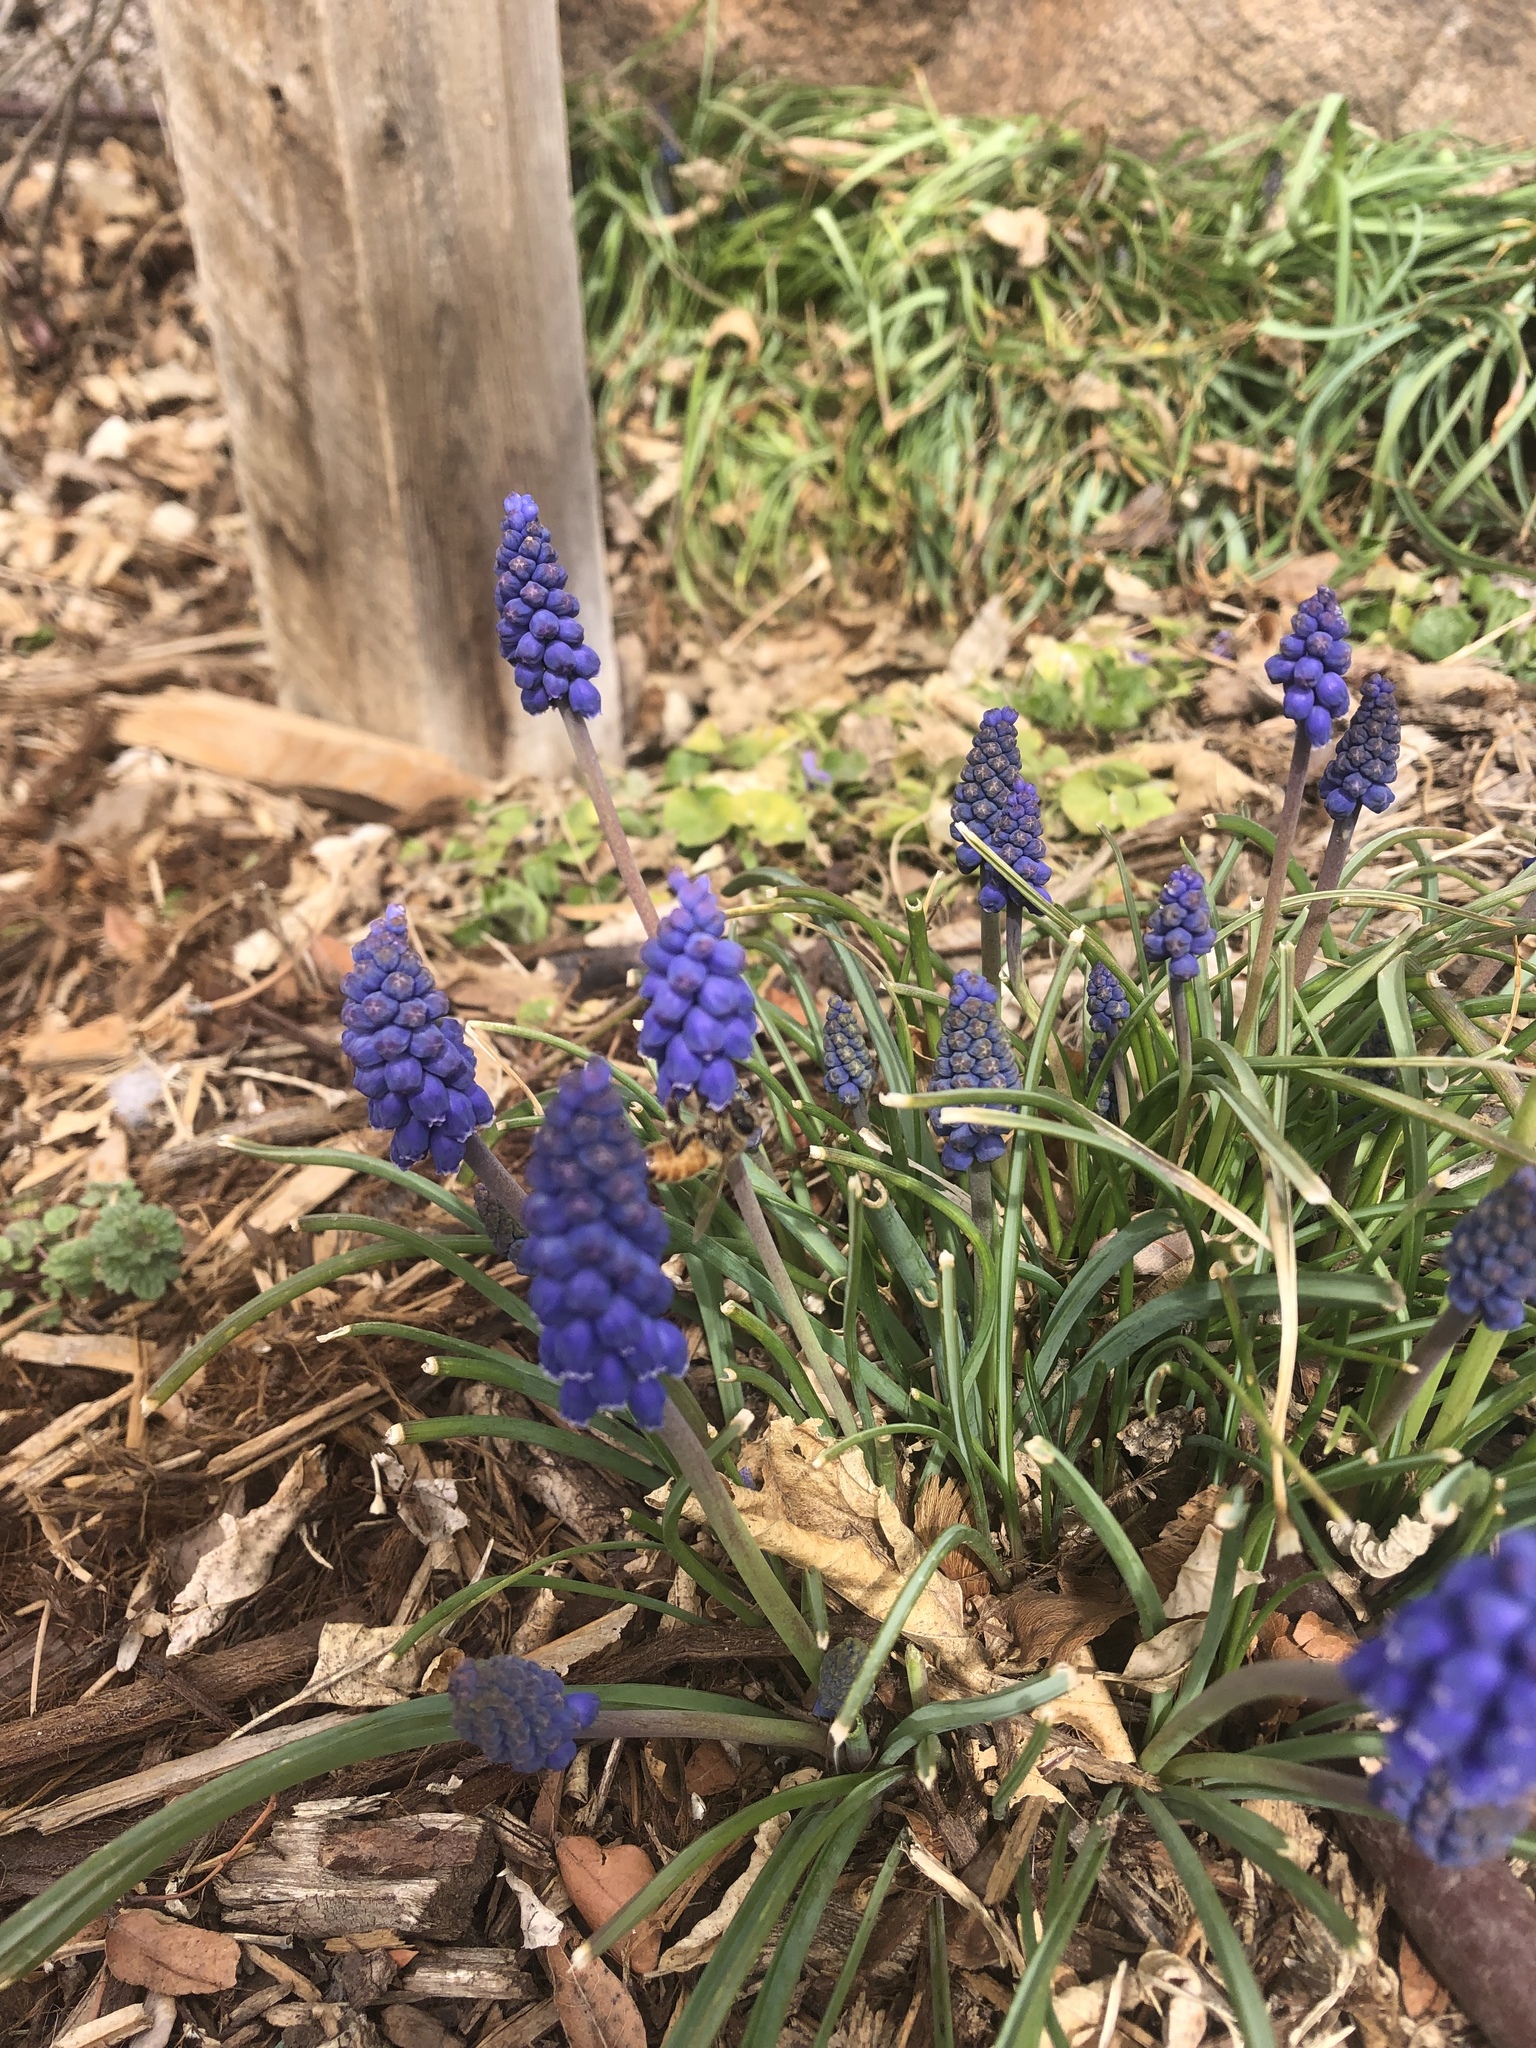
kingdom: Animalia
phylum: Arthropoda
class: Insecta
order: Hymenoptera
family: Apidae
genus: Apis
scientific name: Apis mellifera
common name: Honey bee
